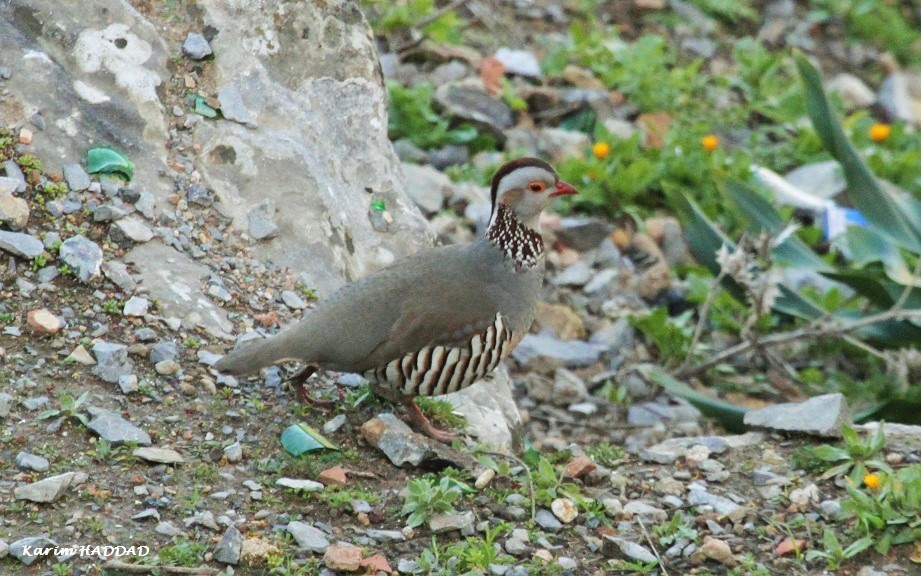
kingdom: Animalia
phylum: Chordata
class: Aves
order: Galliformes
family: Phasianidae
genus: Alectoris
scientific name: Alectoris barbara
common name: Barbary partridge
